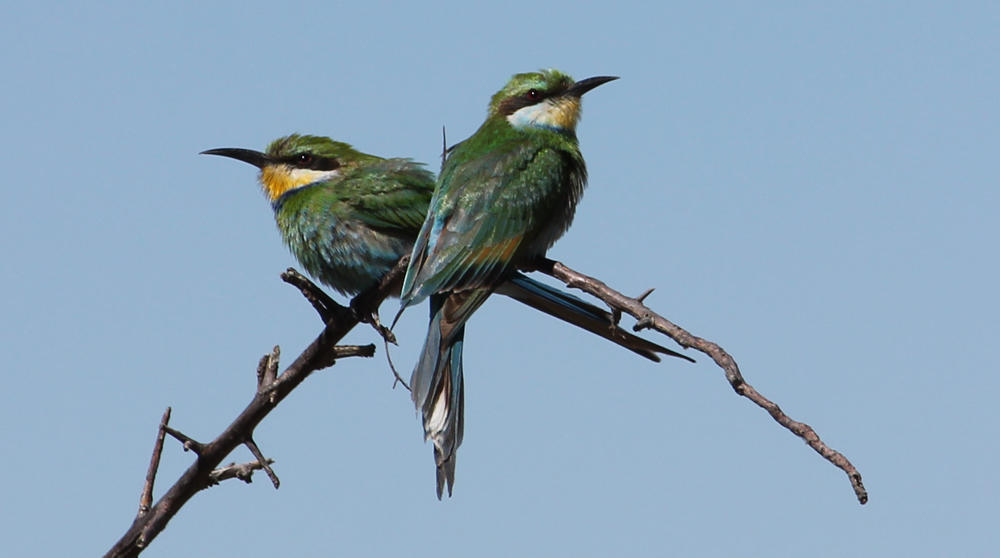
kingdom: Animalia
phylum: Chordata
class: Aves
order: Coraciiformes
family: Meropidae
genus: Merops
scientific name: Merops hirundineus
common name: Swallow-tailed bee-eater
